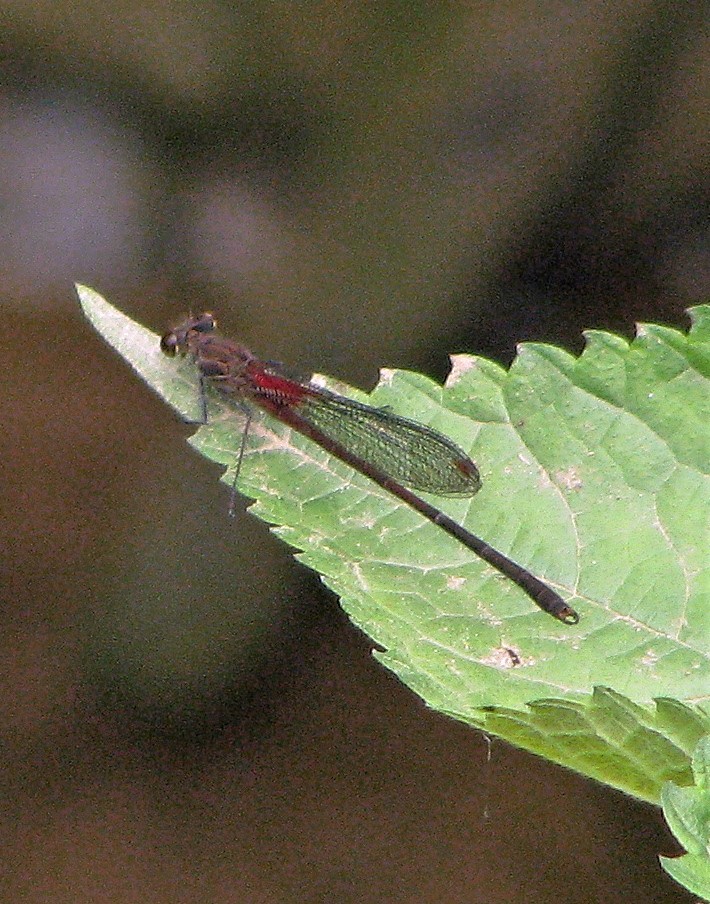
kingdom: Animalia
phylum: Arthropoda
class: Insecta
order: Odonata
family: Calopterygidae
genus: Hetaerina
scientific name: Hetaerina rosea
